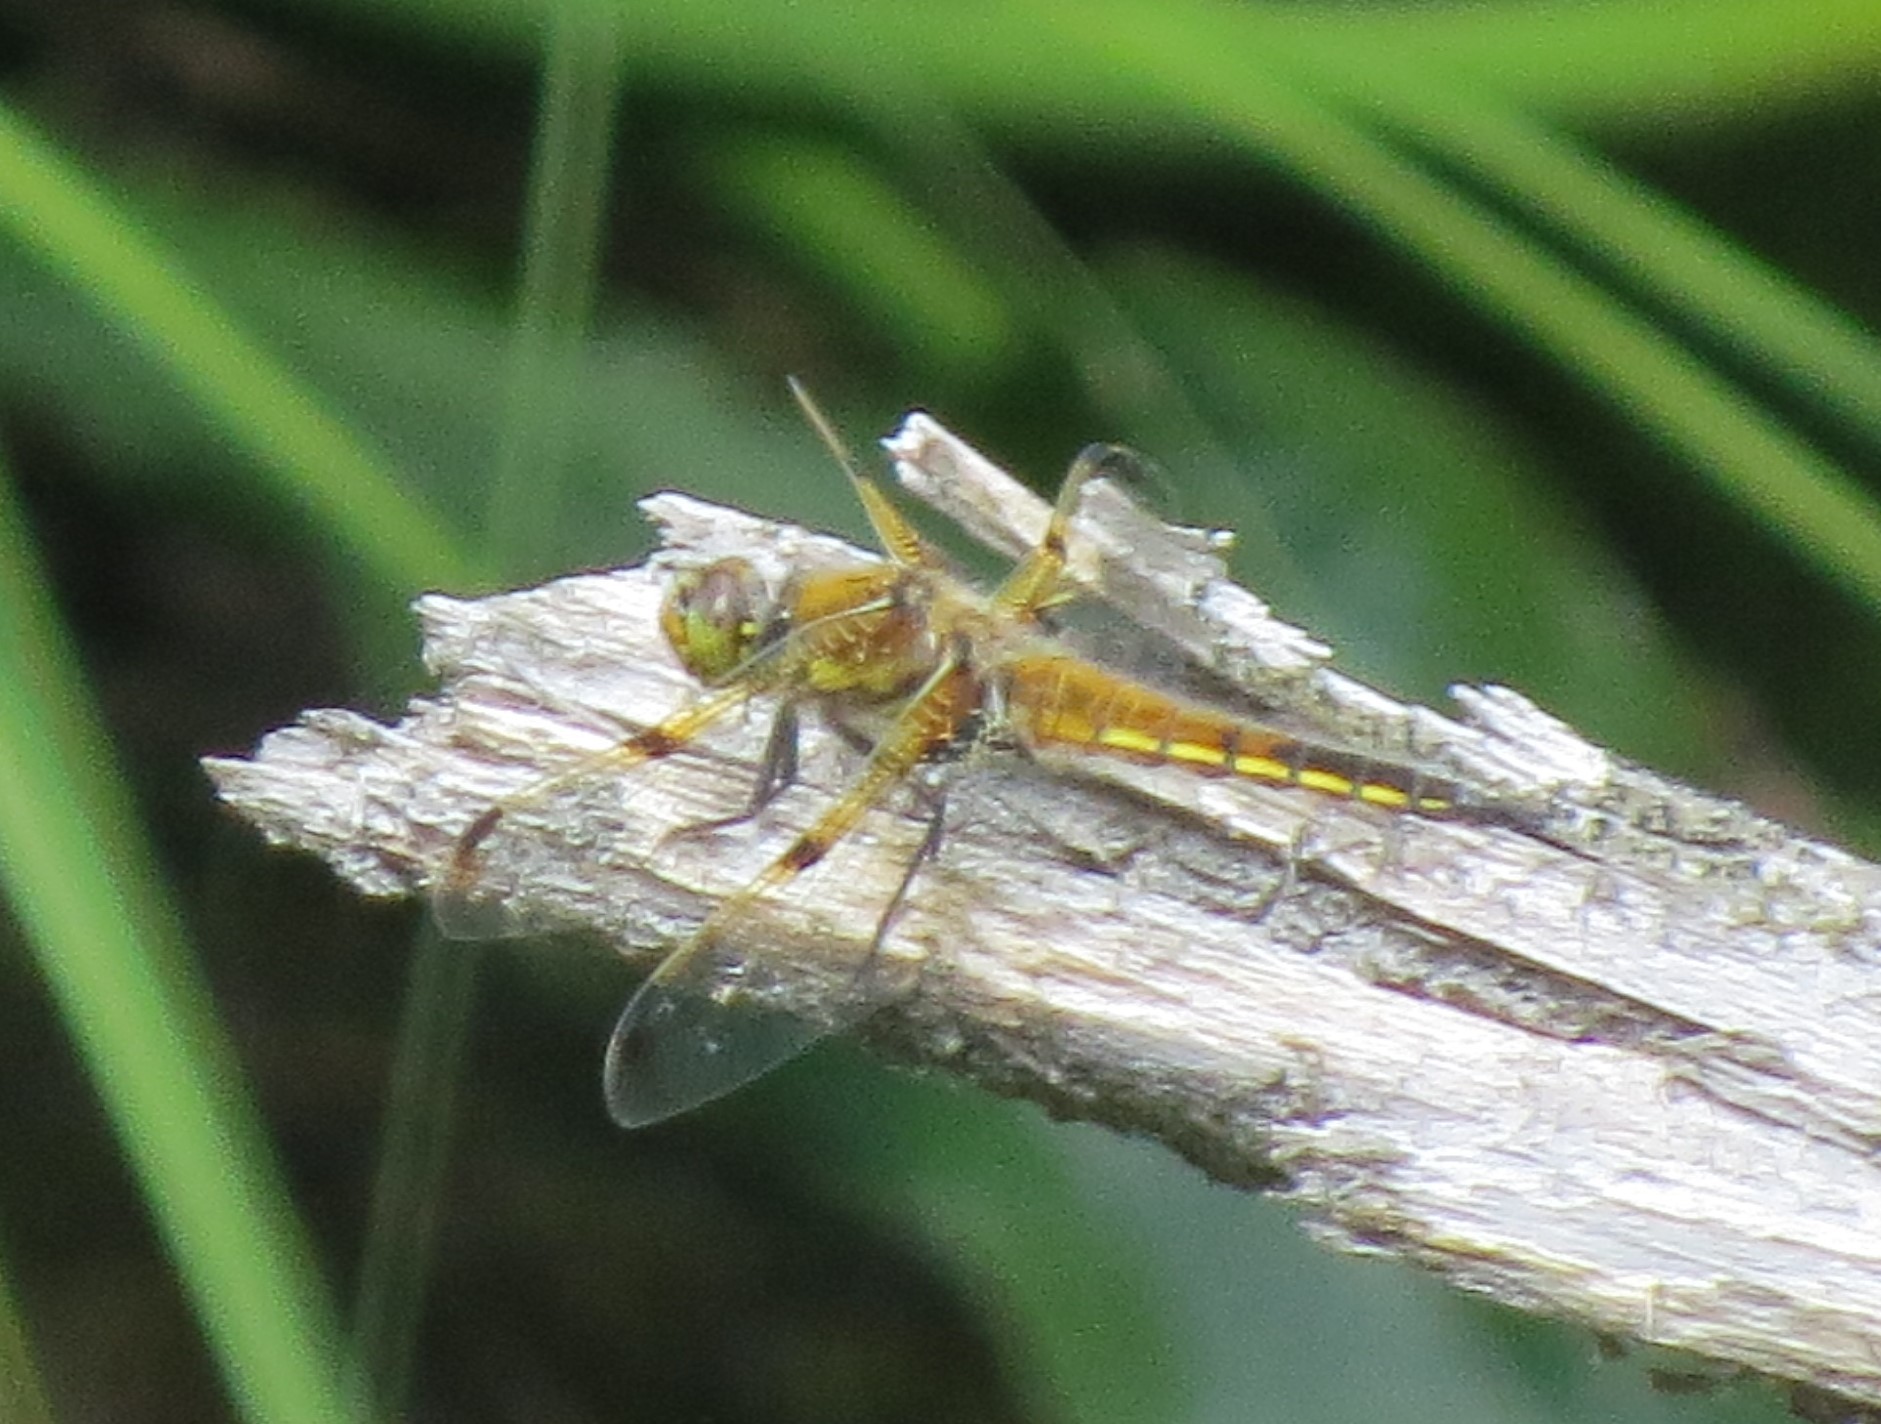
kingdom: Animalia
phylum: Arthropoda
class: Insecta
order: Odonata
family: Libellulidae
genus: Libellula
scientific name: Libellula quadrimaculata
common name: Four-spotted chaser
